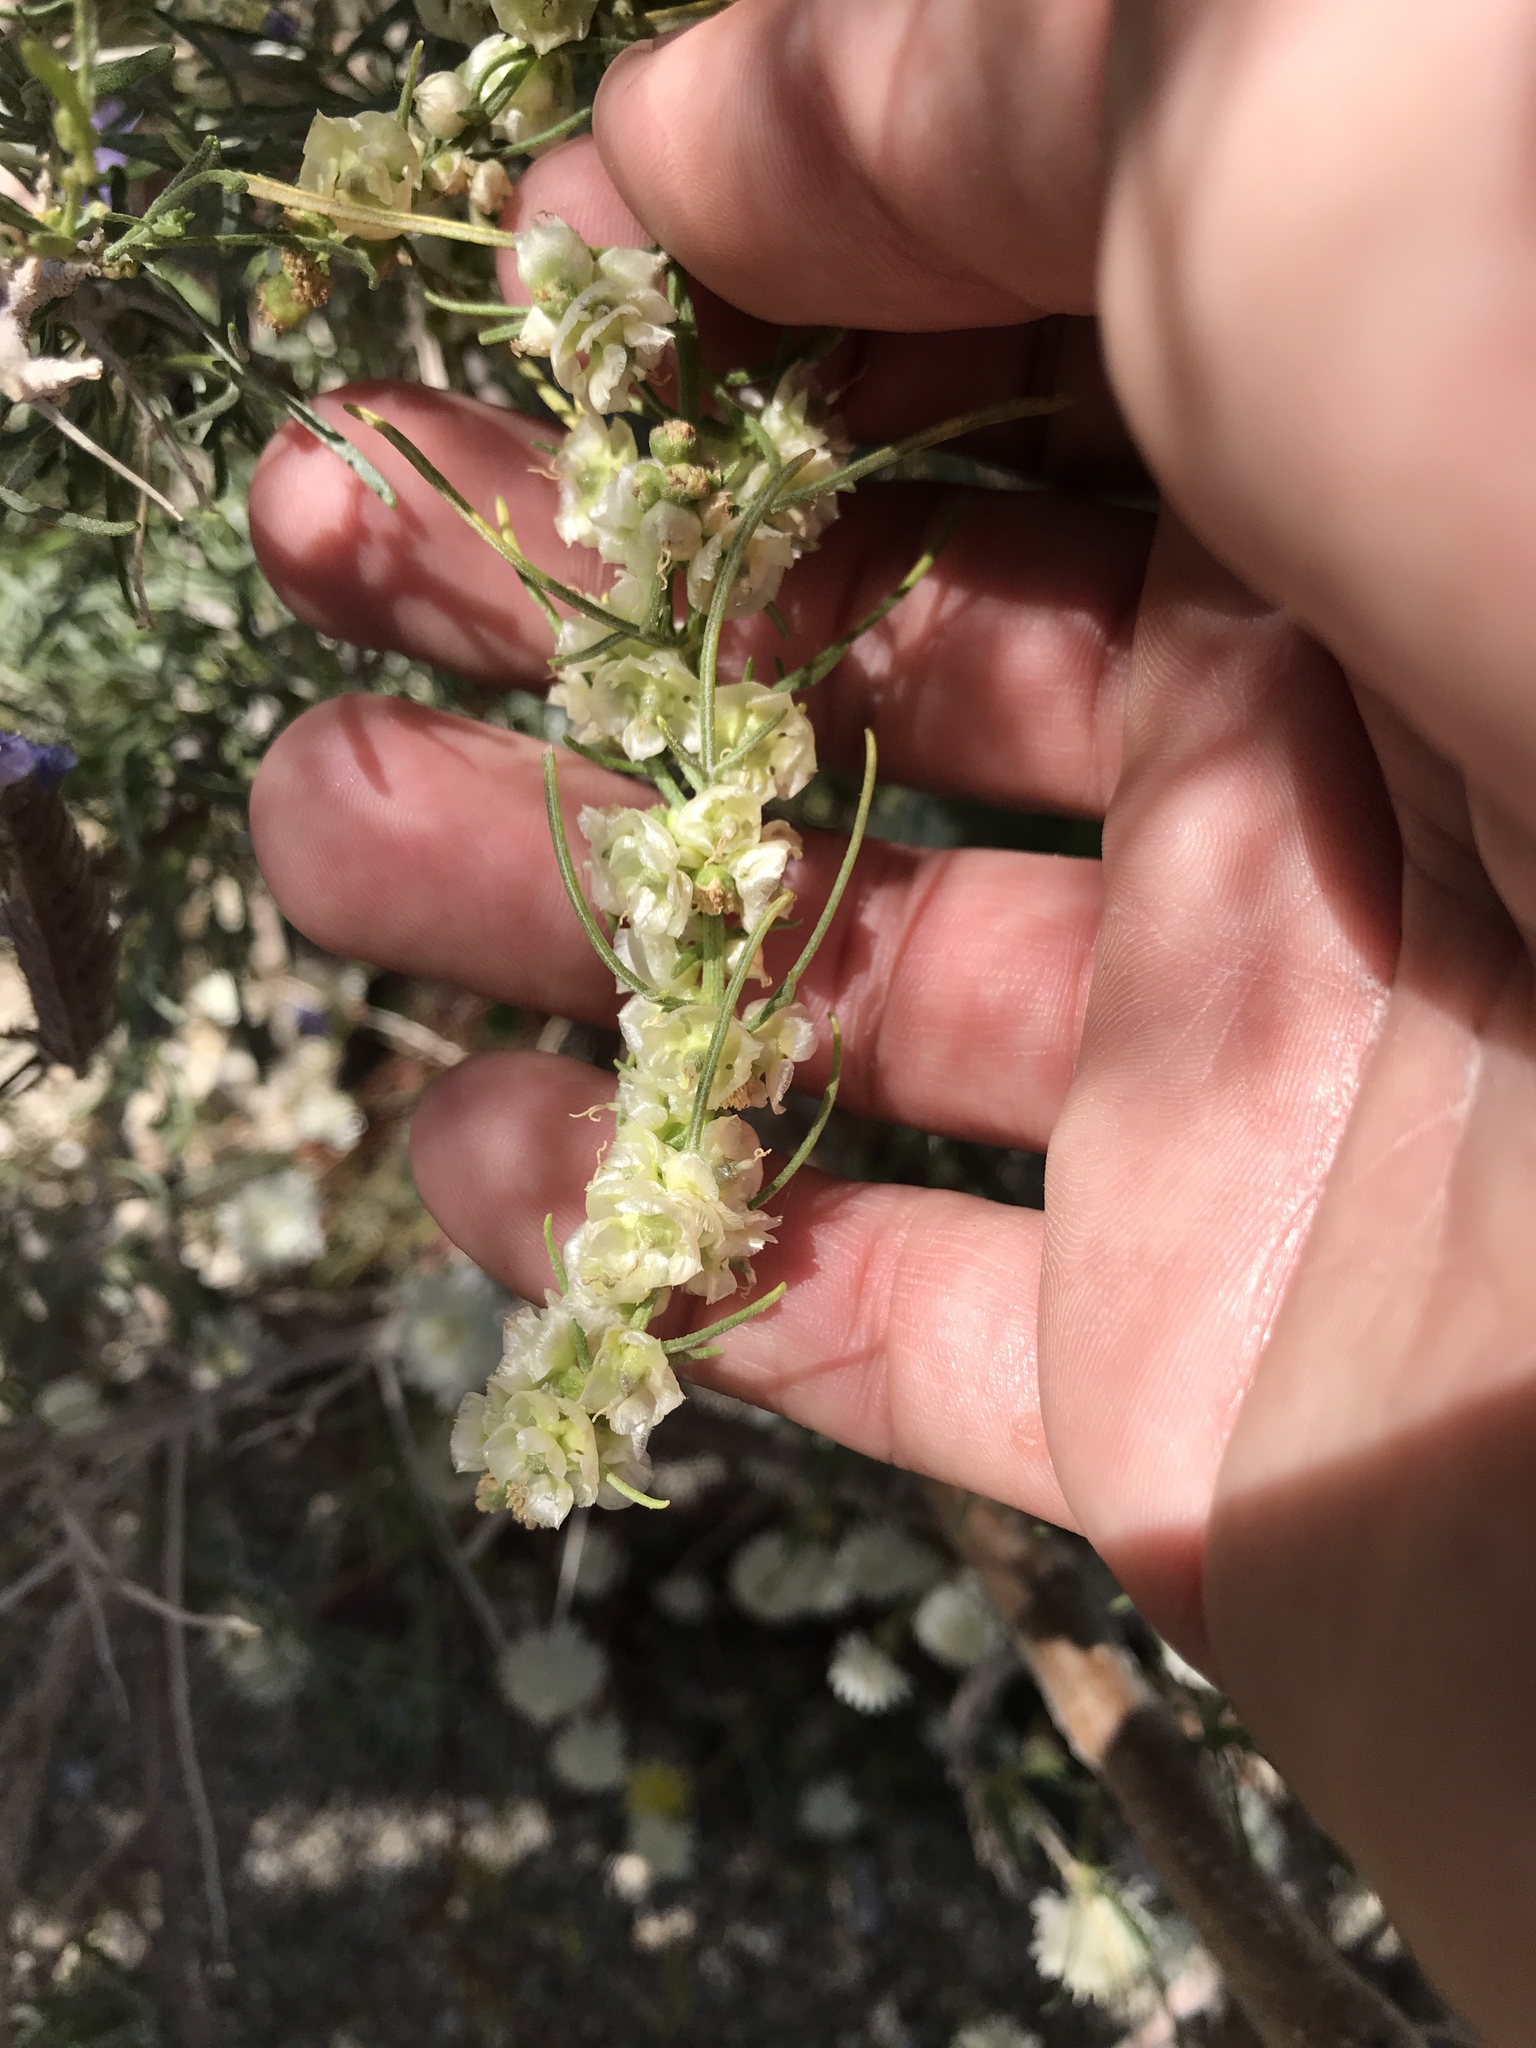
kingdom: Plantae
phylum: Tracheophyta
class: Magnoliopsida
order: Asterales
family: Asteraceae
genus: Ambrosia
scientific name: Ambrosia salsola
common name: Burrobrush
